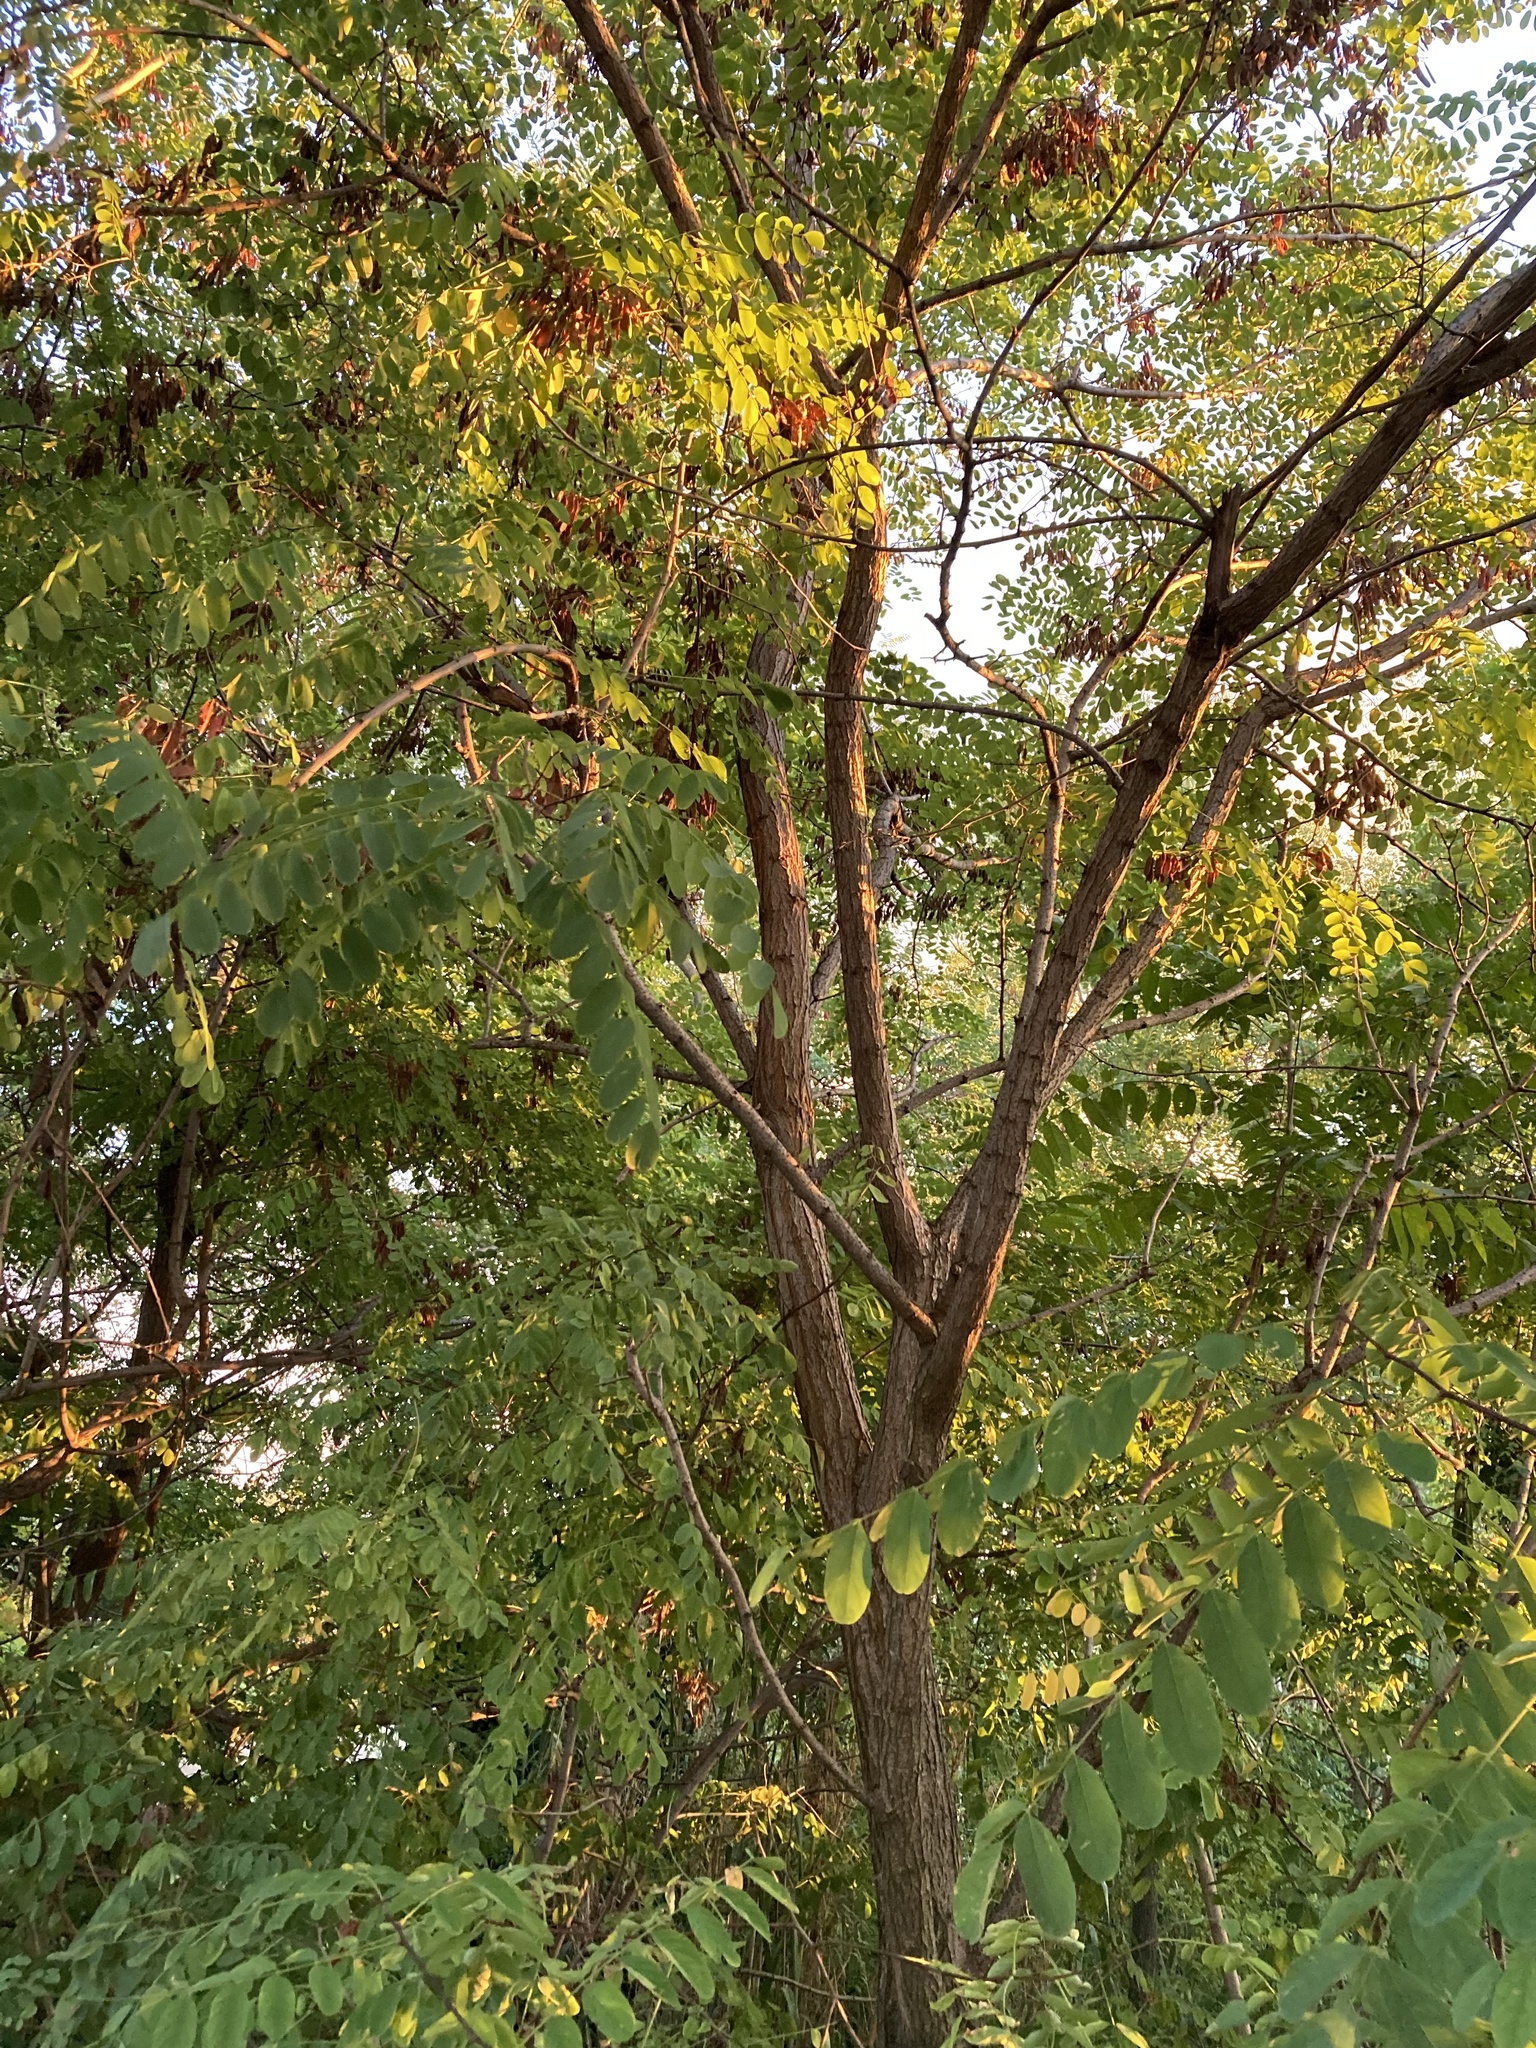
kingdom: Plantae
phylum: Tracheophyta
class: Magnoliopsida
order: Fabales
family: Fabaceae
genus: Robinia
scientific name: Robinia pseudoacacia
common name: Black locust
